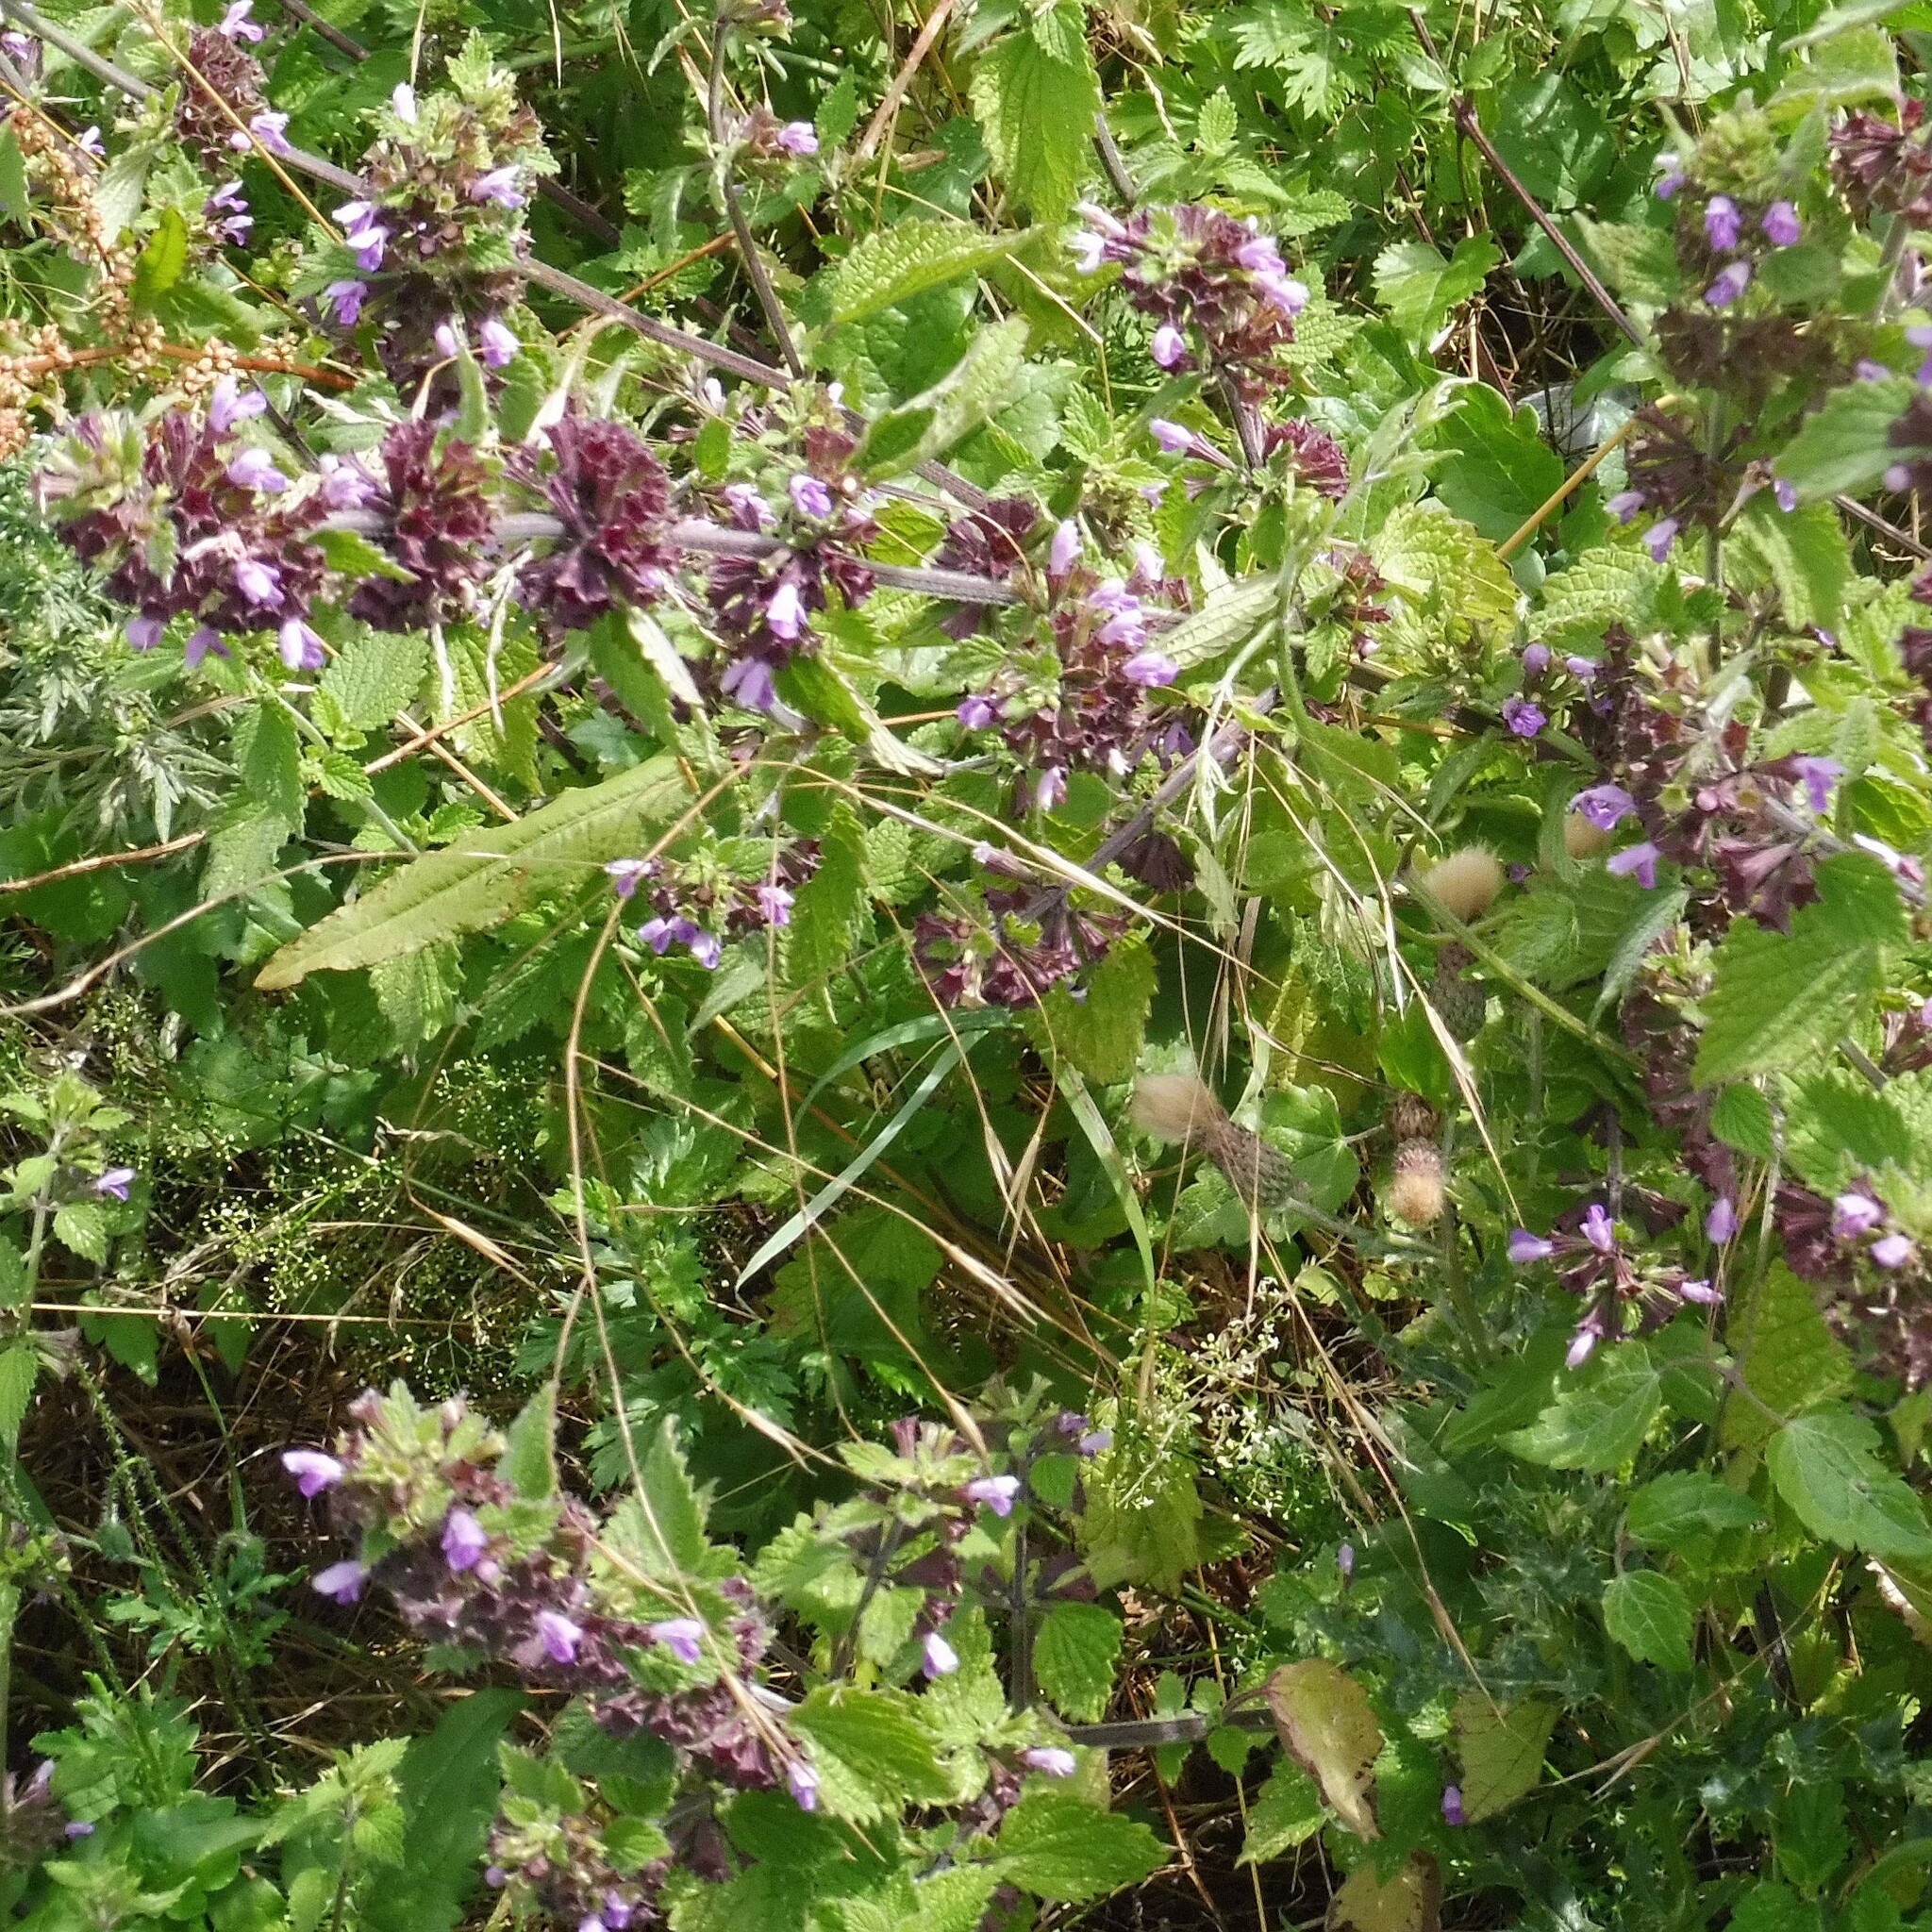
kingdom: Plantae
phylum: Tracheophyta
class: Magnoliopsida
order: Lamiales
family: Lamiaceae
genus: Ballota
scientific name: Ballota nigra
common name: Black horehound
